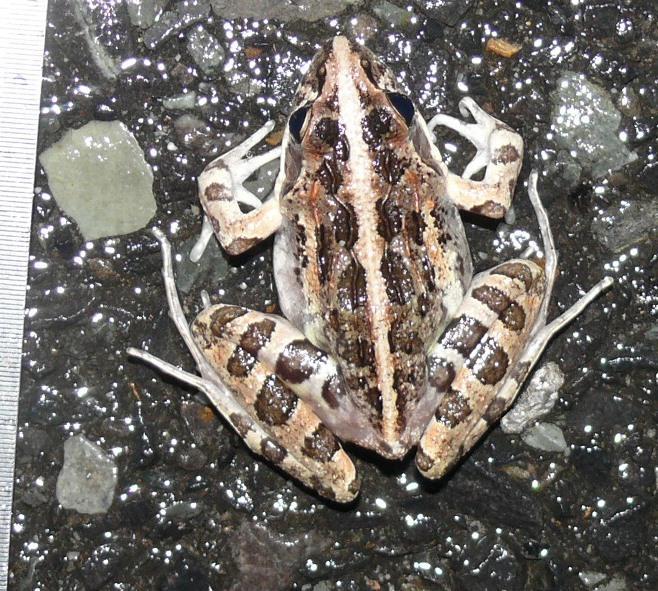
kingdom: Animalia
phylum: Chordata
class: Amphibia
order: Anura
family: Pyxicephalidae
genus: Strongylopus
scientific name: Strongylopus grayii
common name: Gray's stream frog
